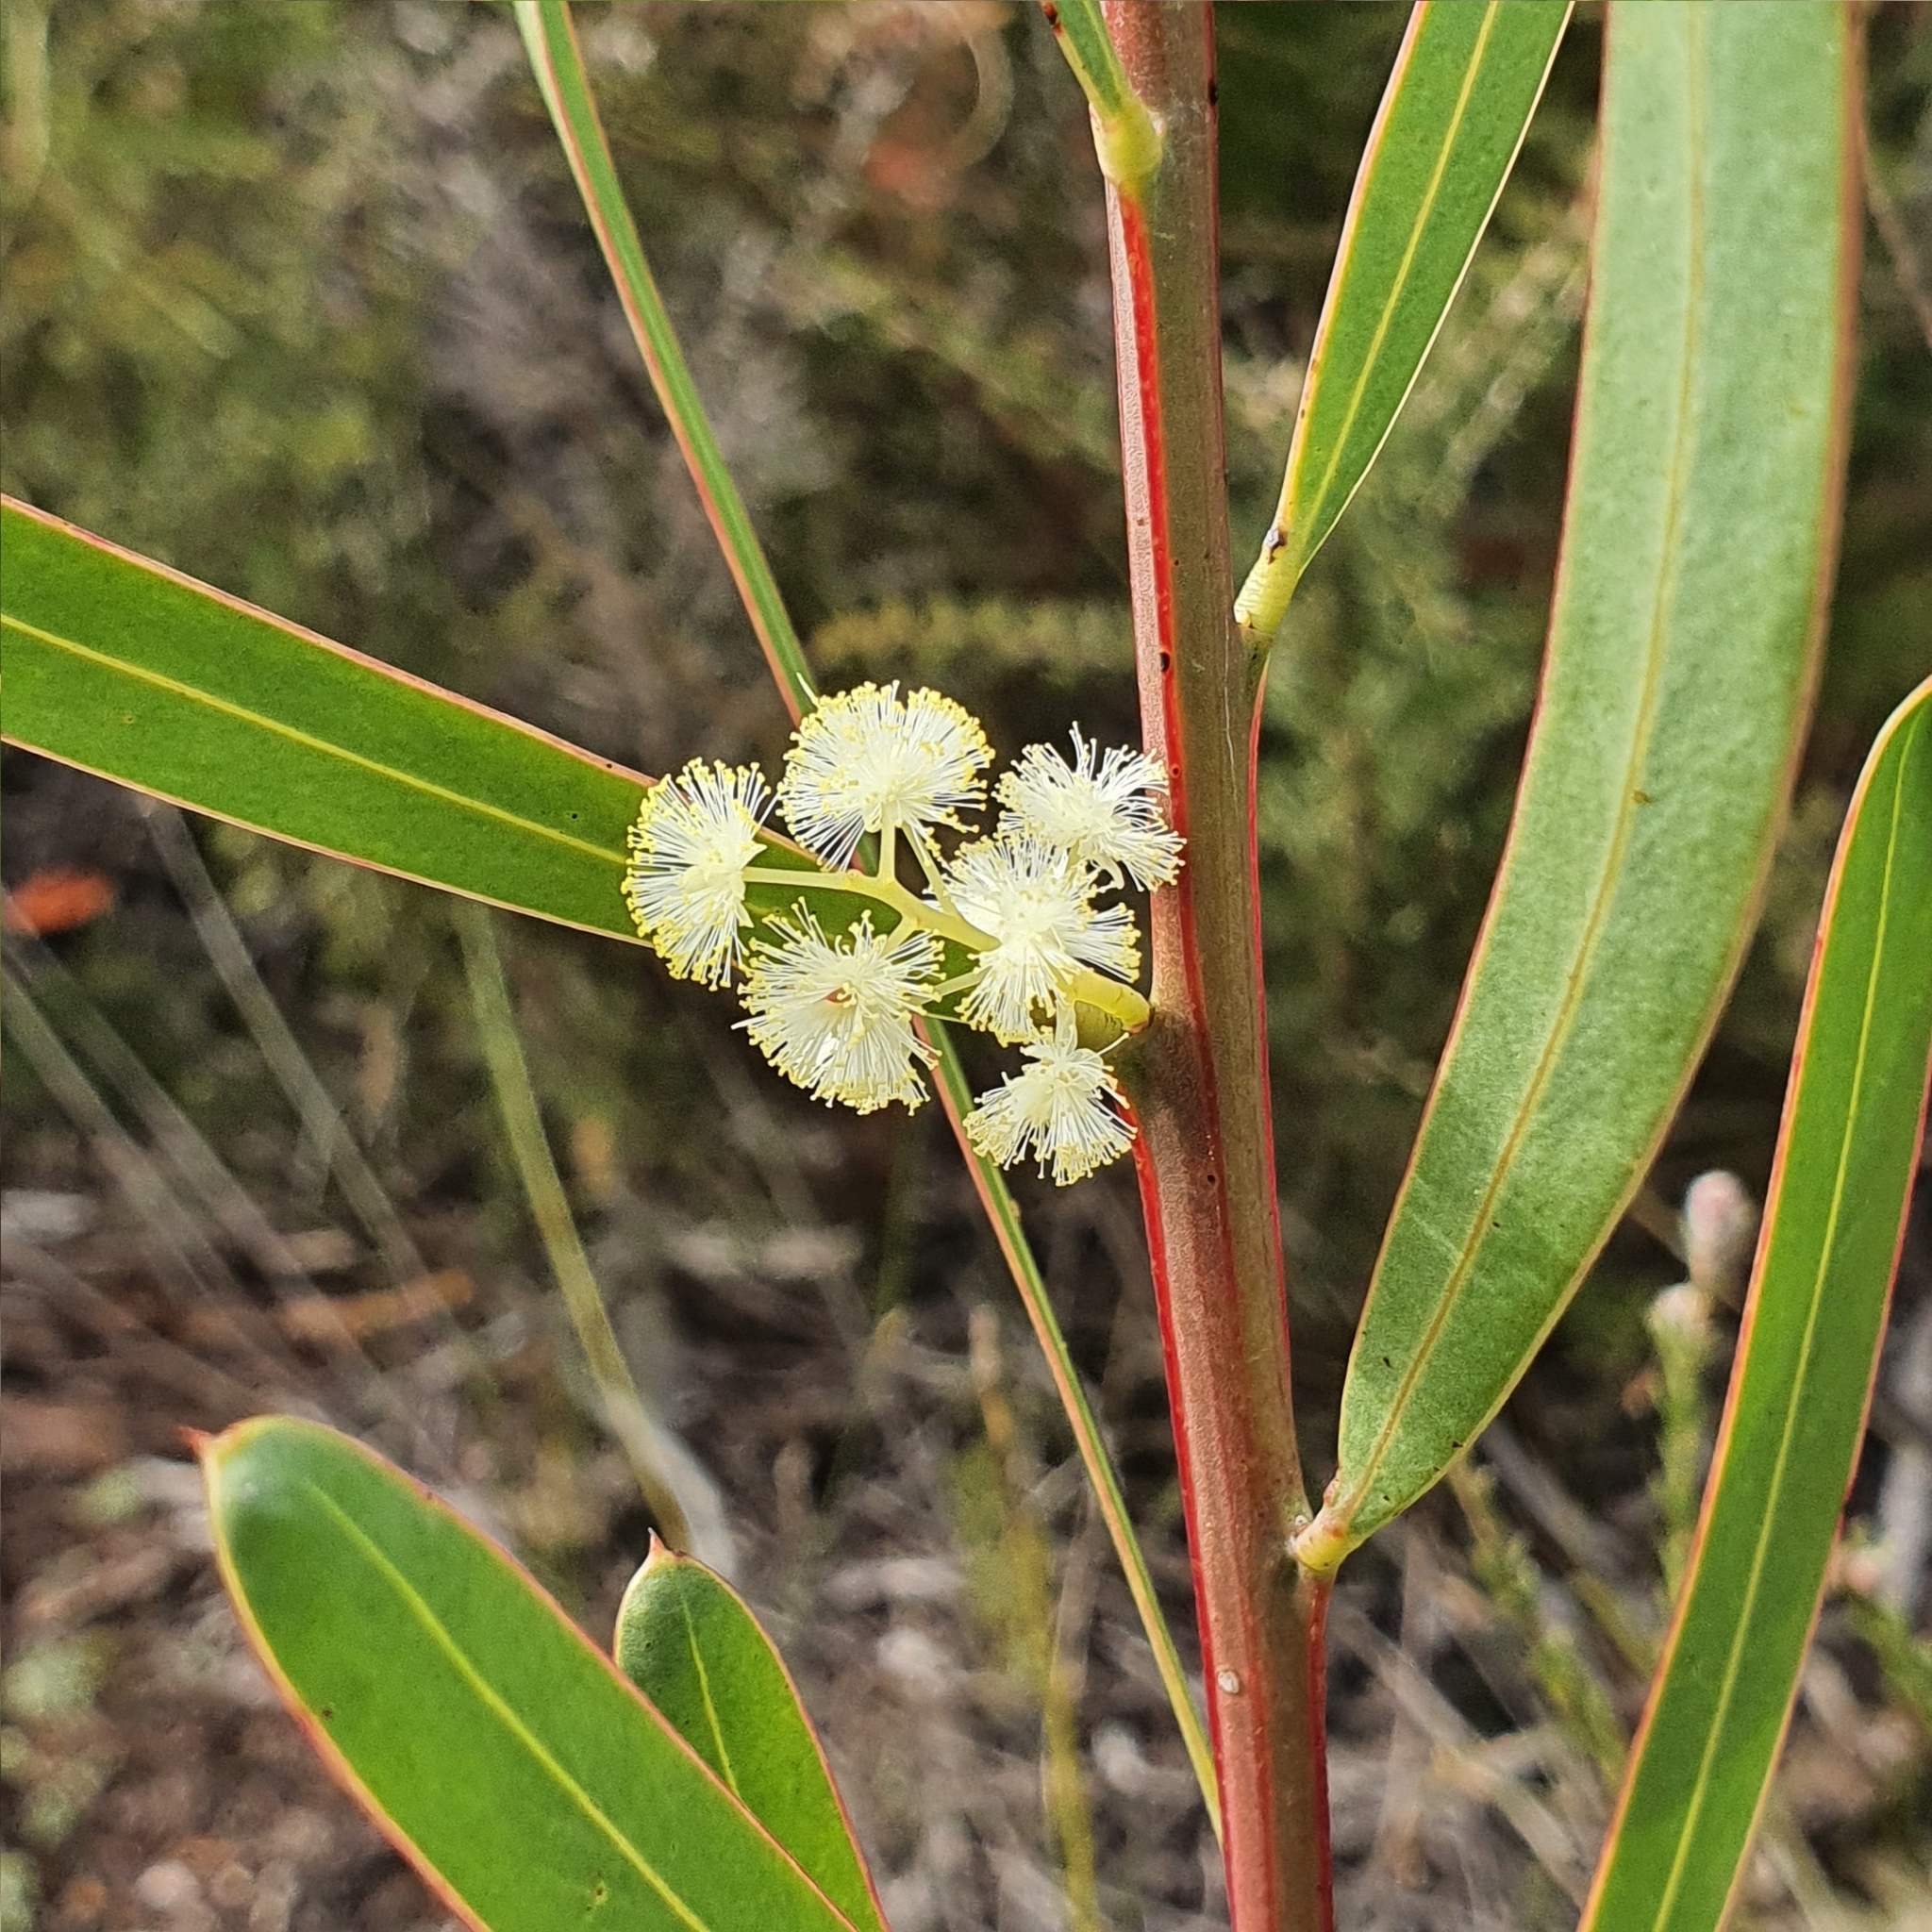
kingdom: Plantae
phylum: Tracheophyta
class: Magnoliopsida
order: Fabales
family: Fabaceae
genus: Acacia
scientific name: Acacia suaveolens
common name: Sweet acacia
